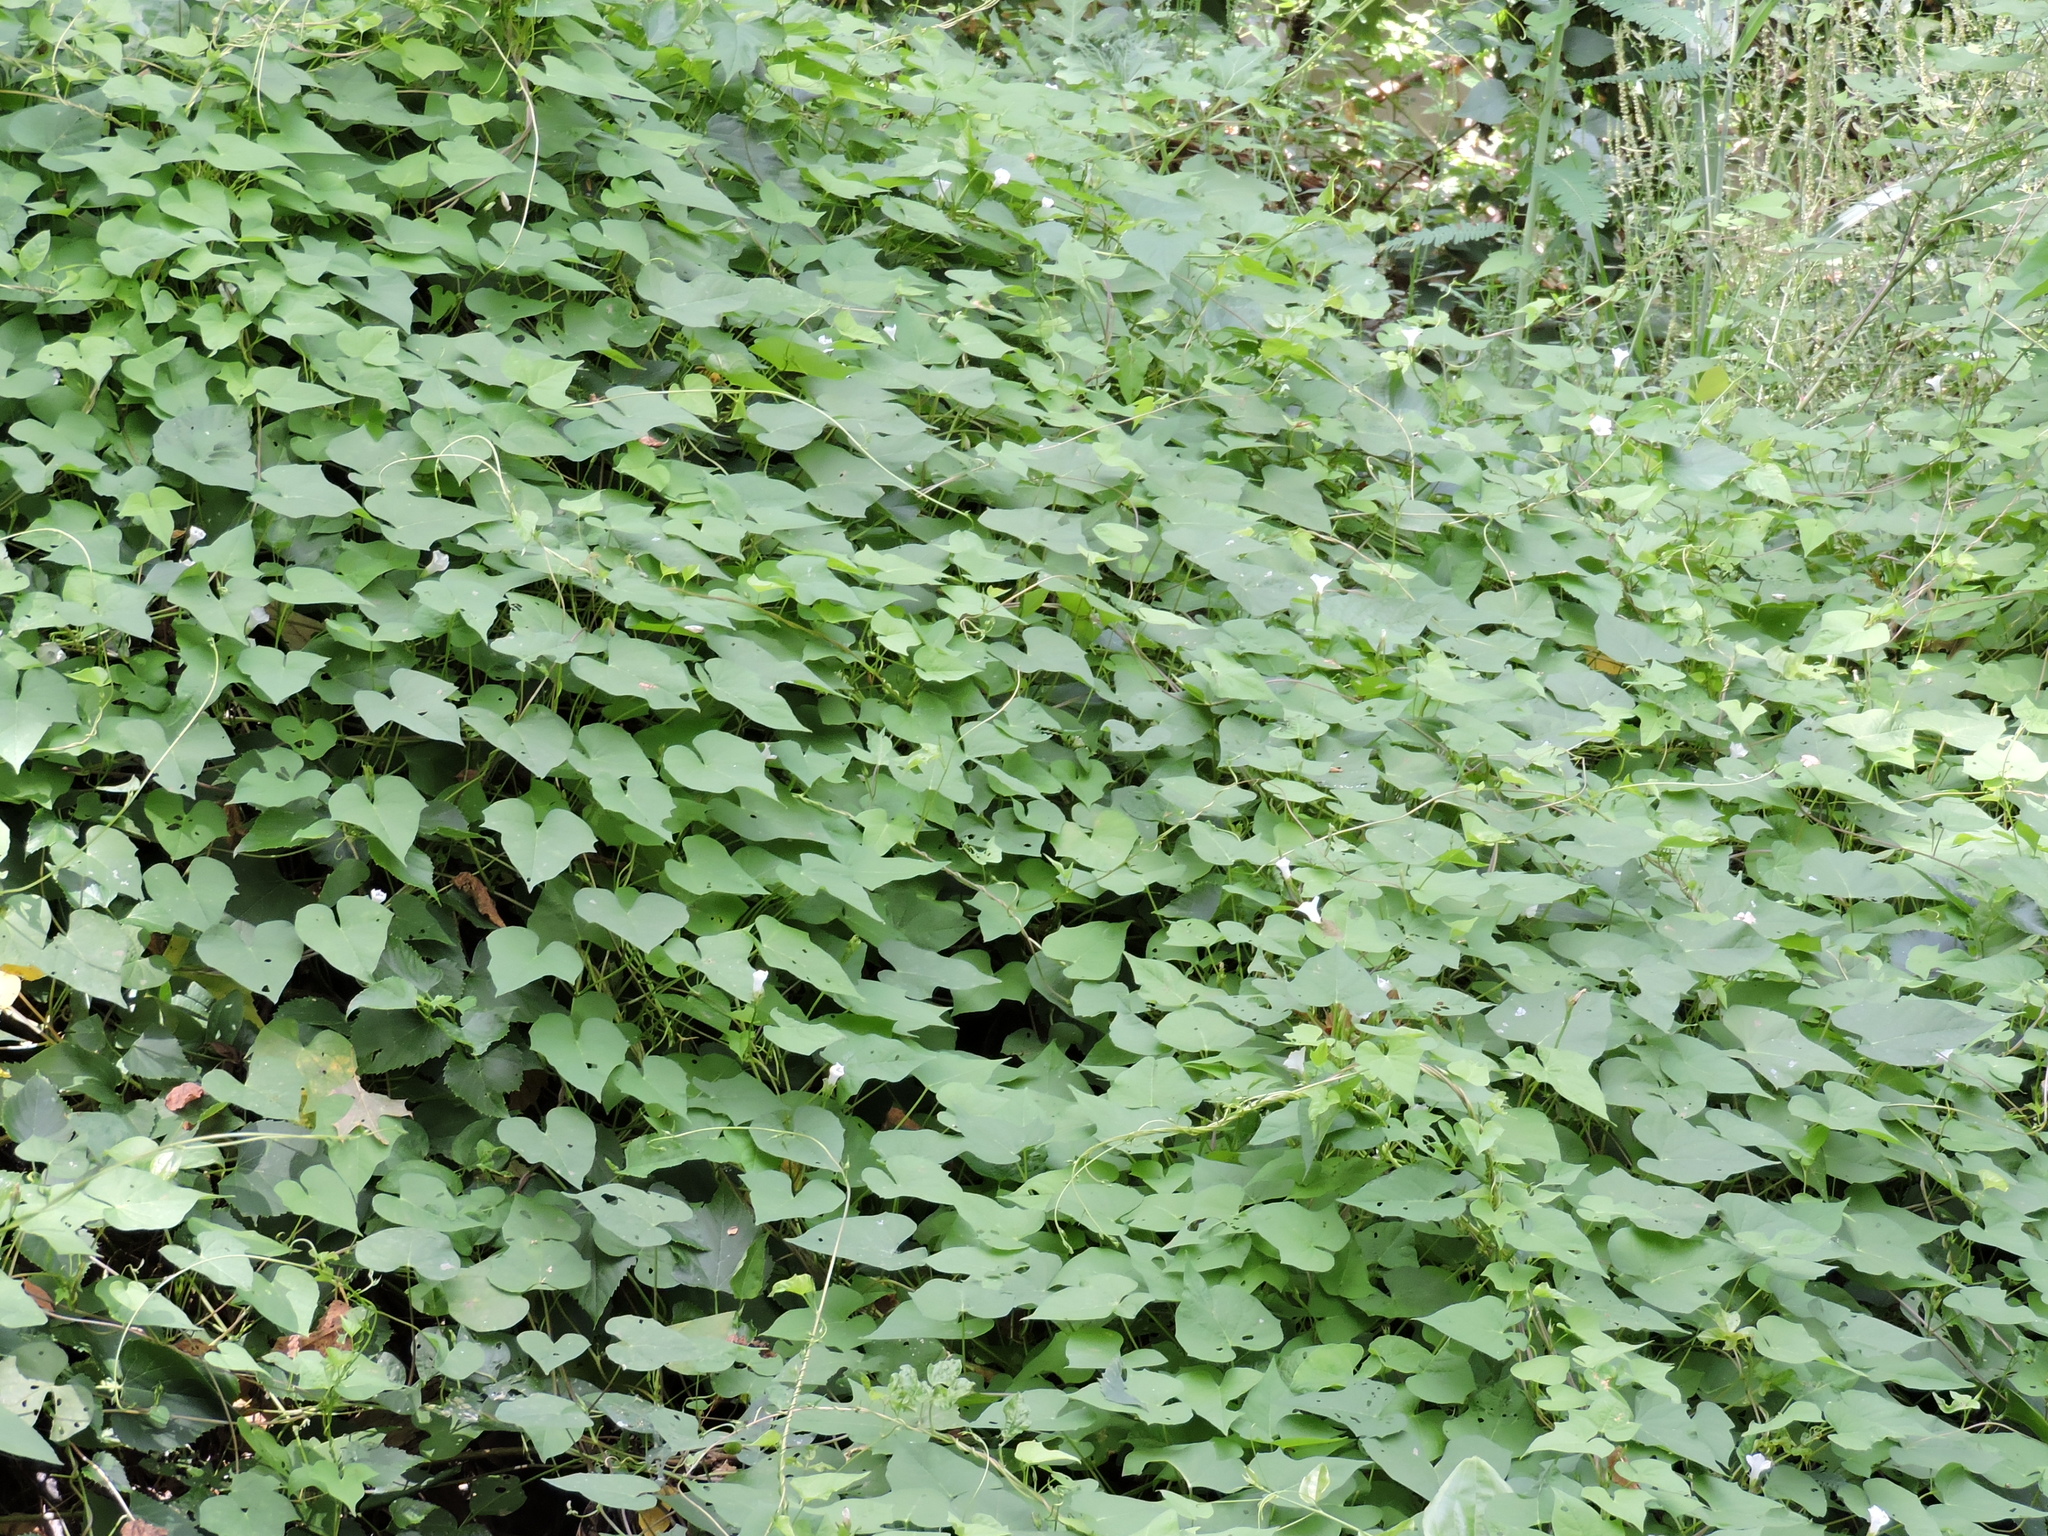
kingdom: Plantae
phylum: Tracheophyta
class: Magnoliopsida
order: Solanales
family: Convolvulaceae
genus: Ipomoea
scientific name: Ipomoea lacunosa
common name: White morning-glory
